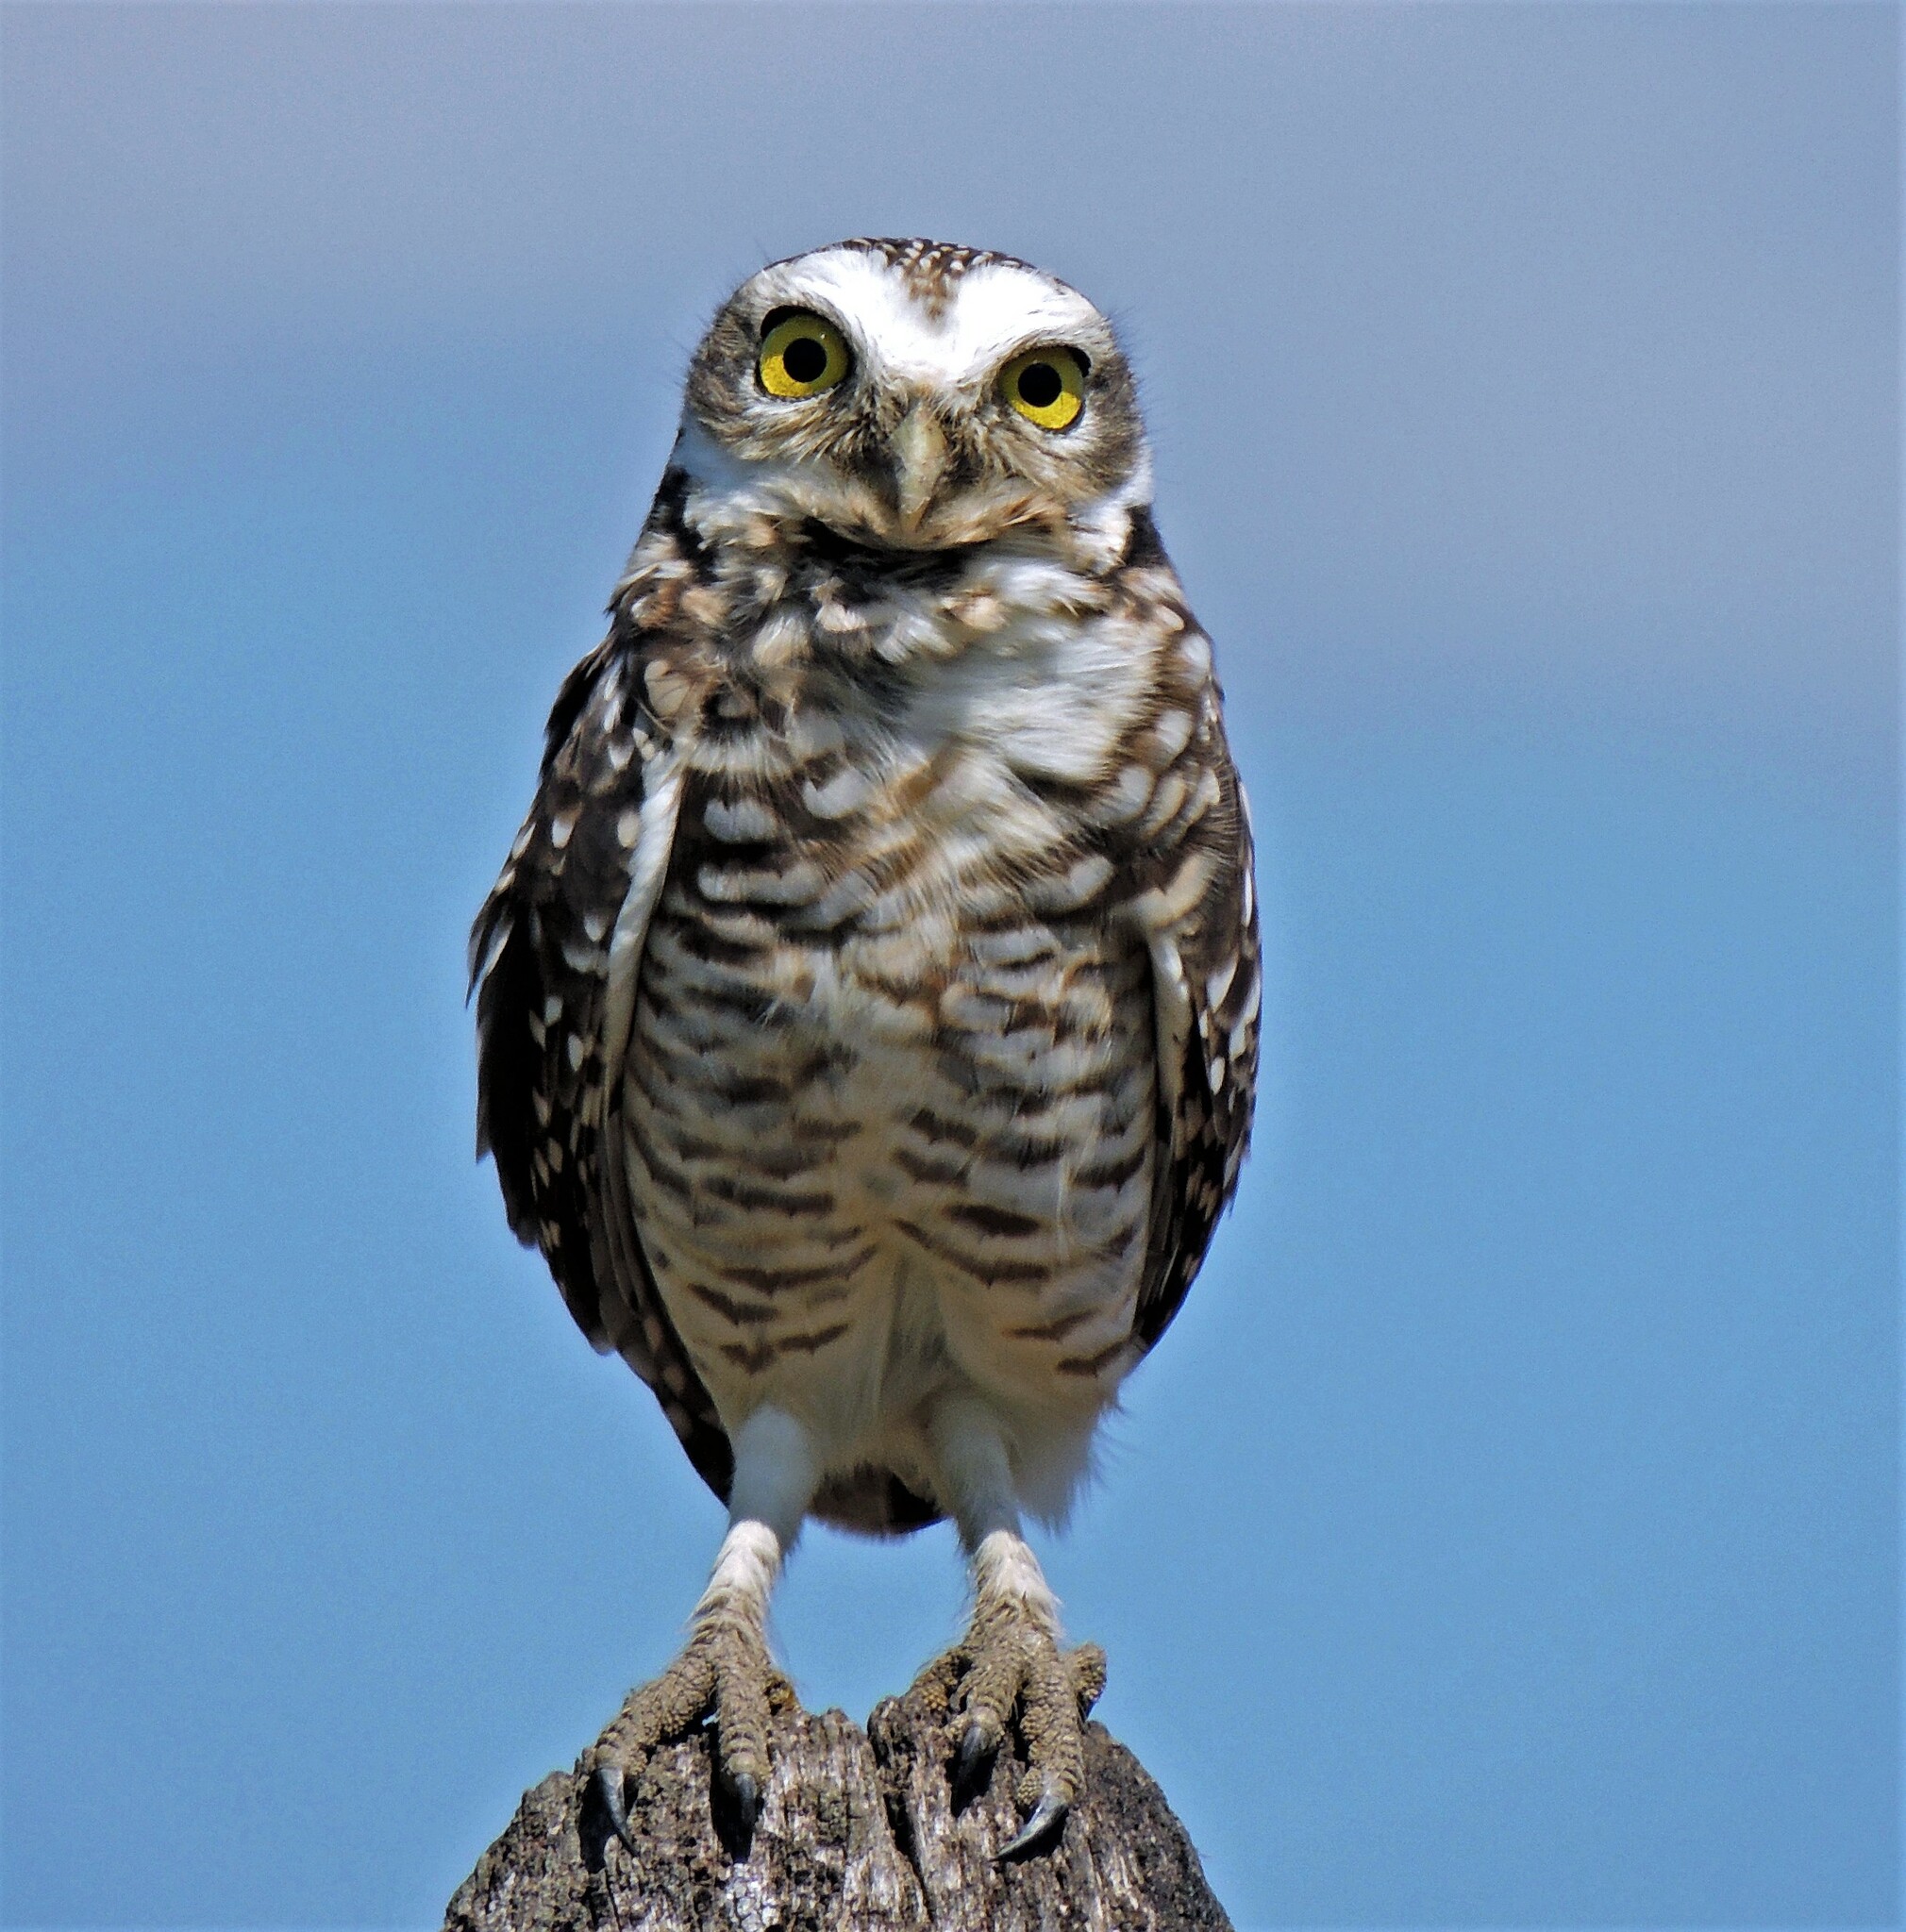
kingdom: Animalia
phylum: Chordata
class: Aves
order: Strigiformes
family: Strigidae
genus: Athene
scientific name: Athene cunicularia
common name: Burrowing owl
